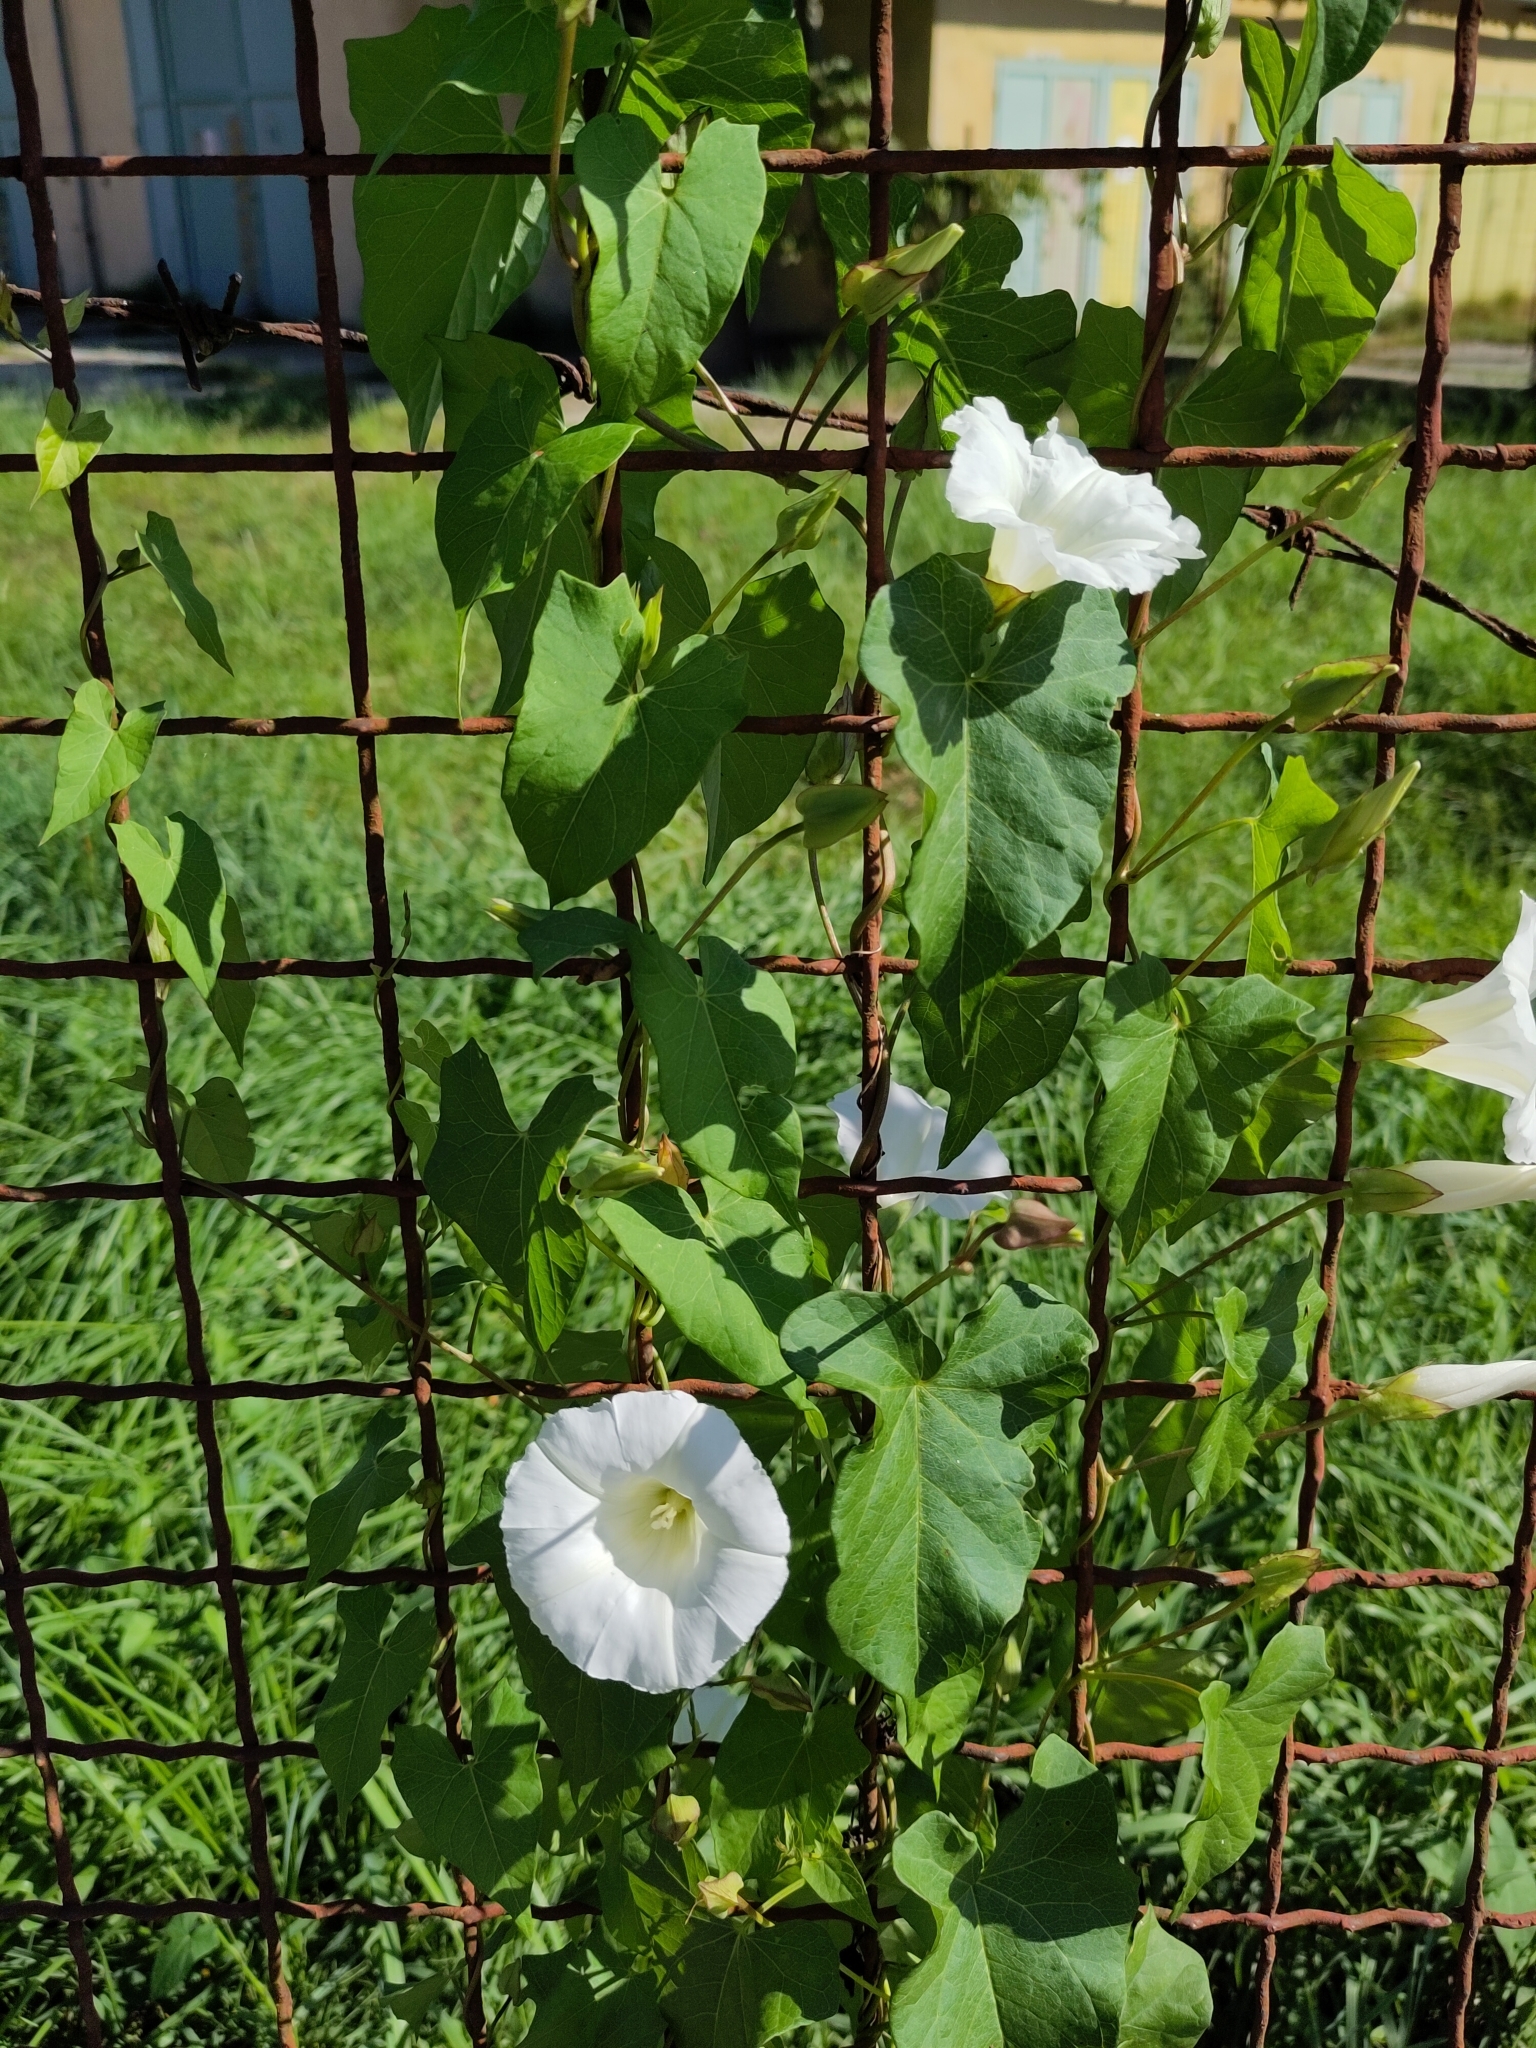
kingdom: Plantae
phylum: Tracheophyta
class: Magnoliopsida
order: Solanales
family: Convolvulaceae
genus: Calystegia
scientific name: Calystegia sepium
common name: Hedge bindweed
